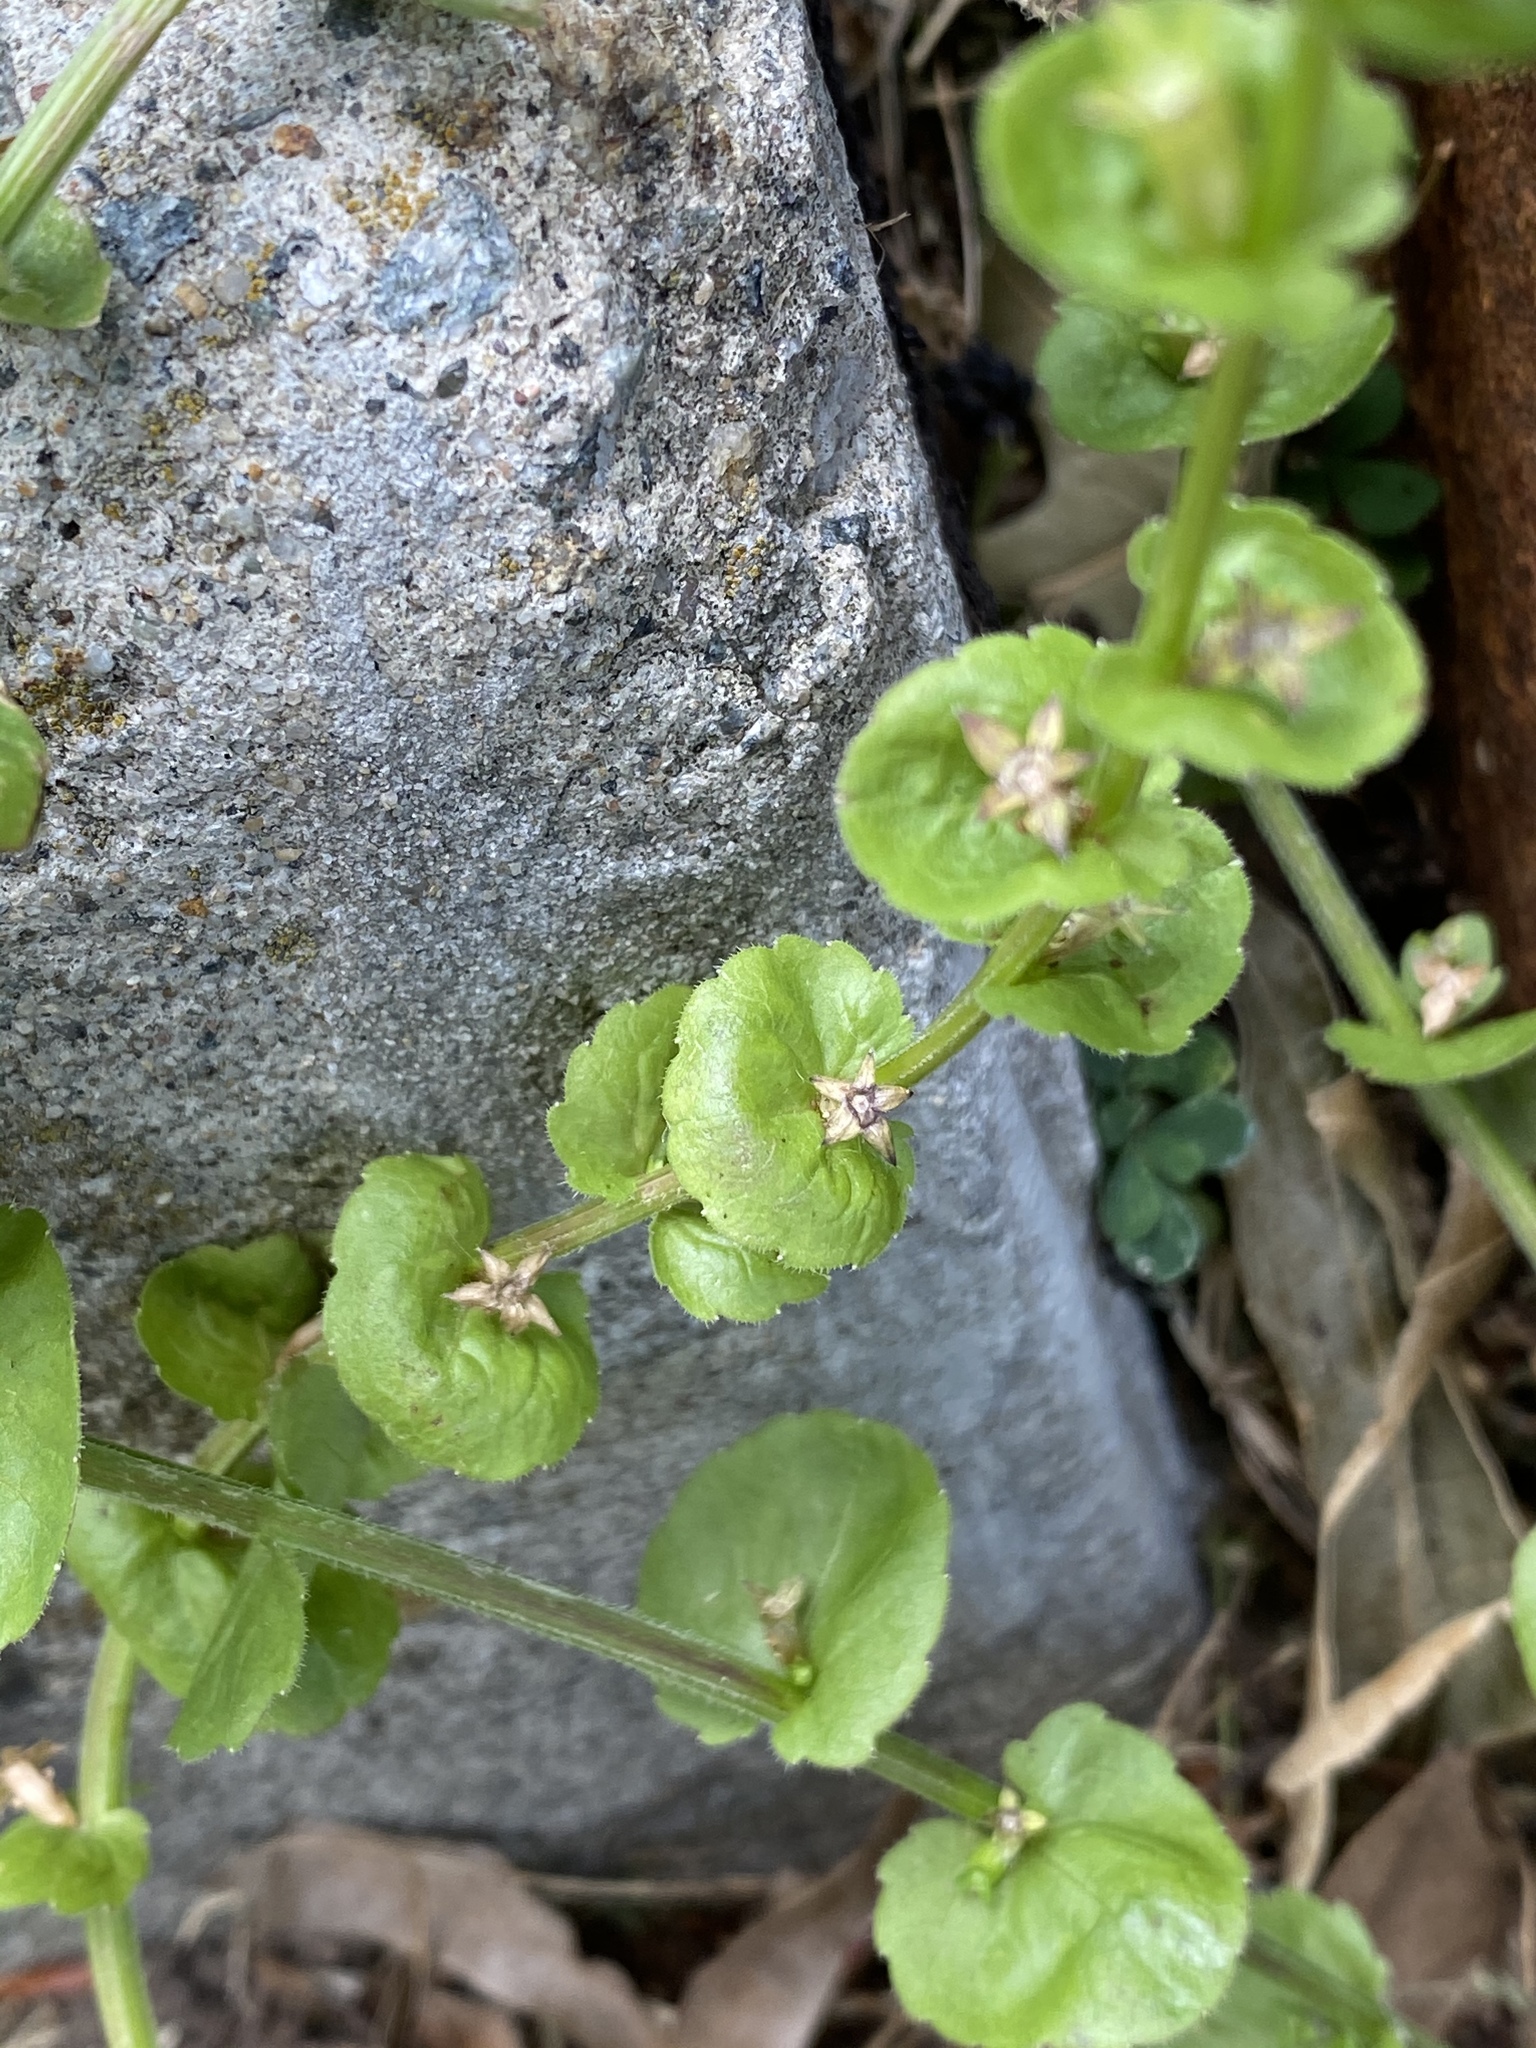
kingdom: Plantae
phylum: Tracheophyta
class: Magnoliopsida
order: Asterales
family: Campanulaceae
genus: Triodanis
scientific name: Triodanis perfoliata
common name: Clasping venus' looking-glass
